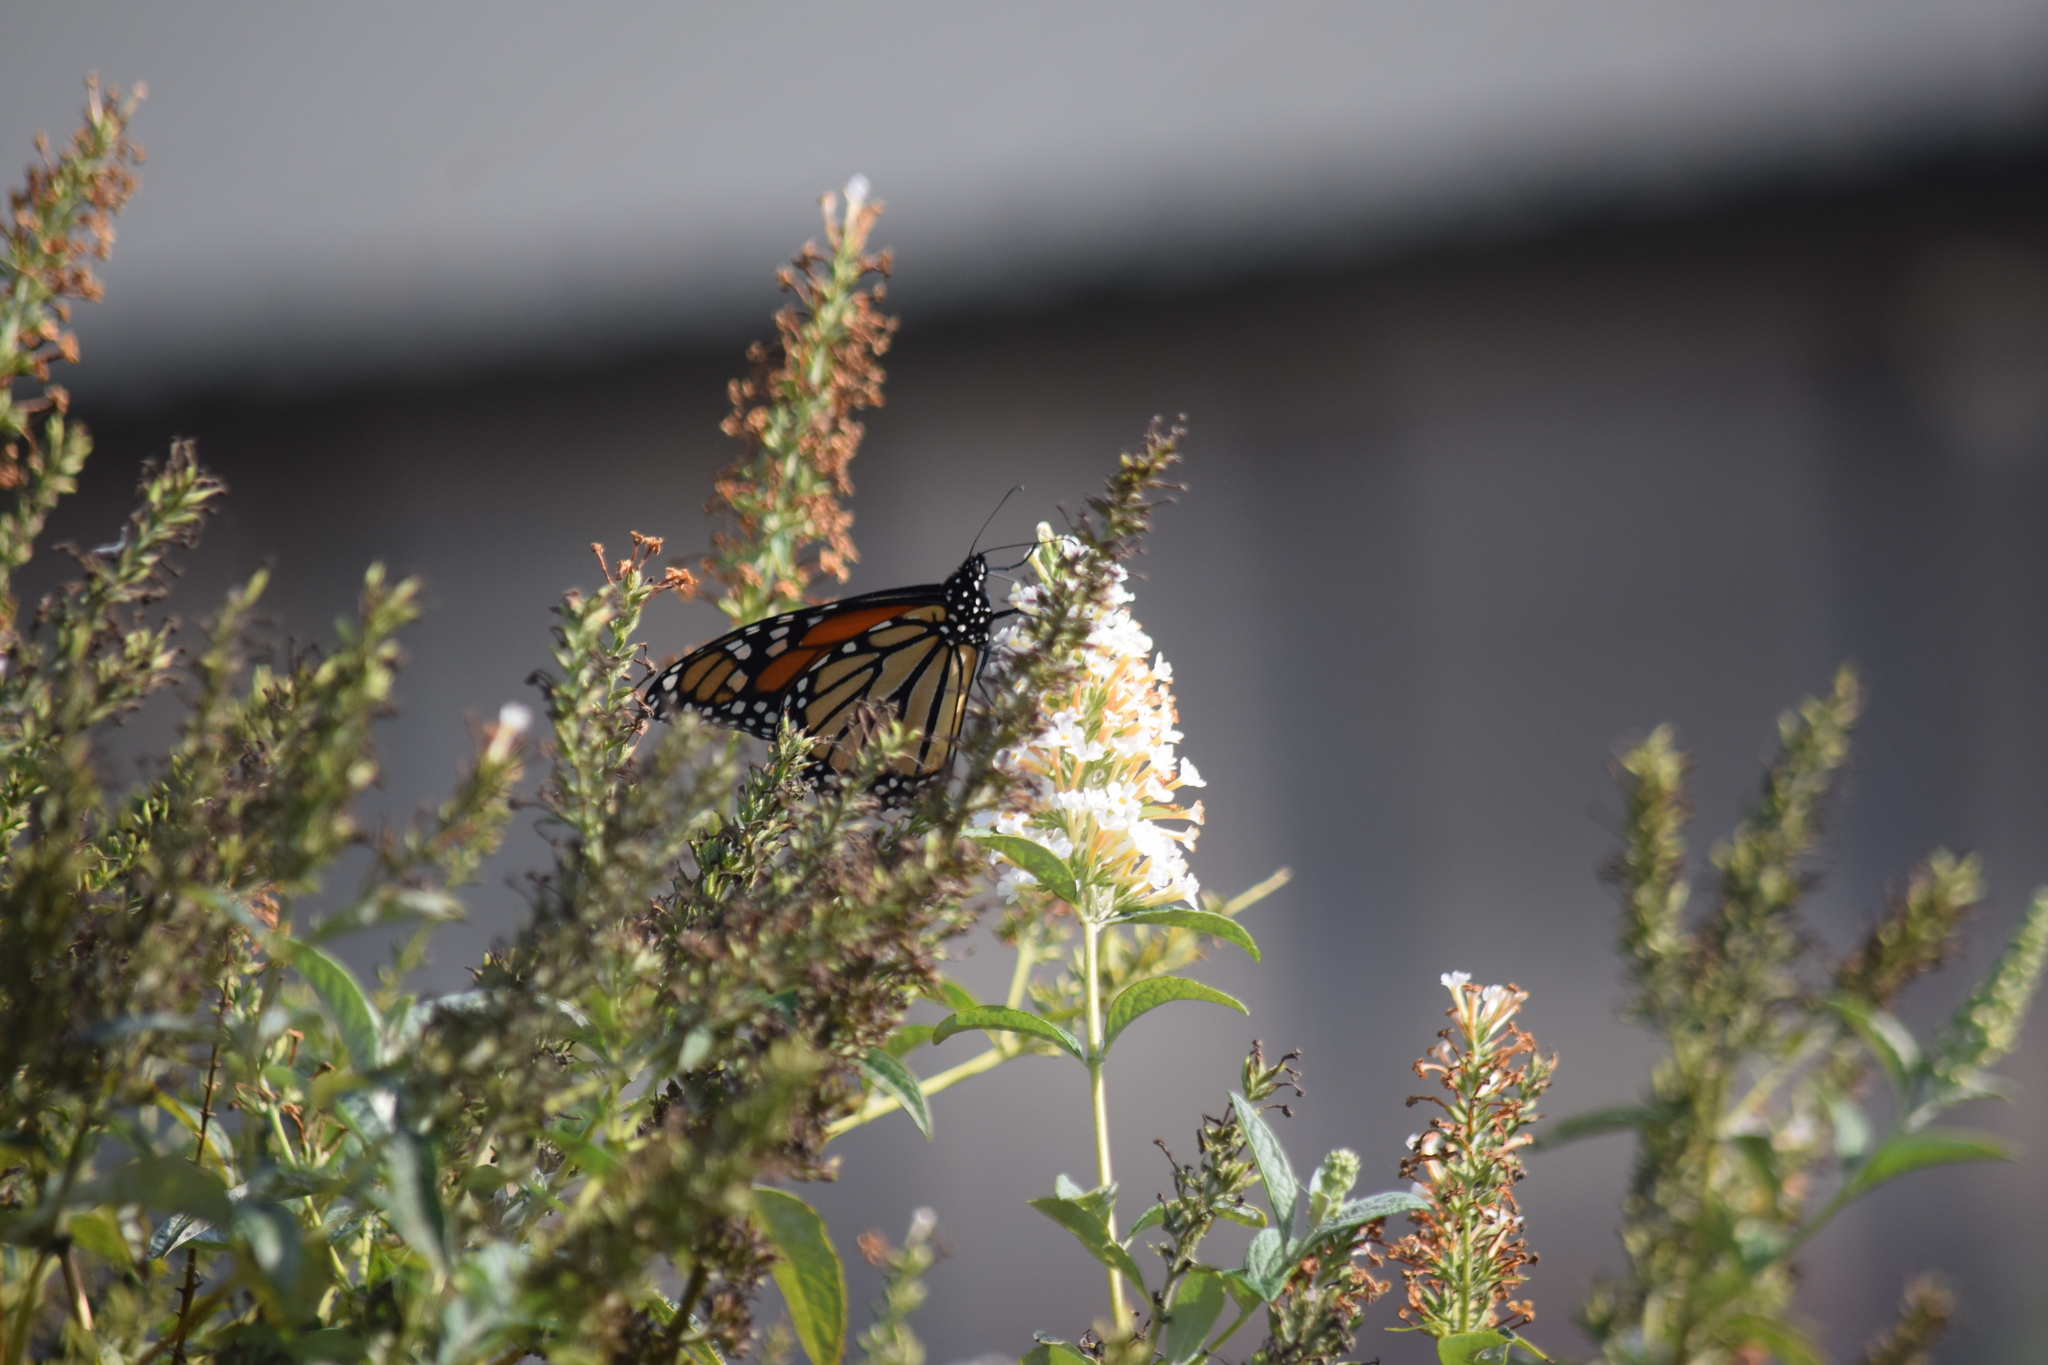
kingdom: Animalia
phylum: Arthropoda
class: Insecta
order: Lepidoptera
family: Nymphalidae
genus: Danaus
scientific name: Danaus plexippus
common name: Monarch
